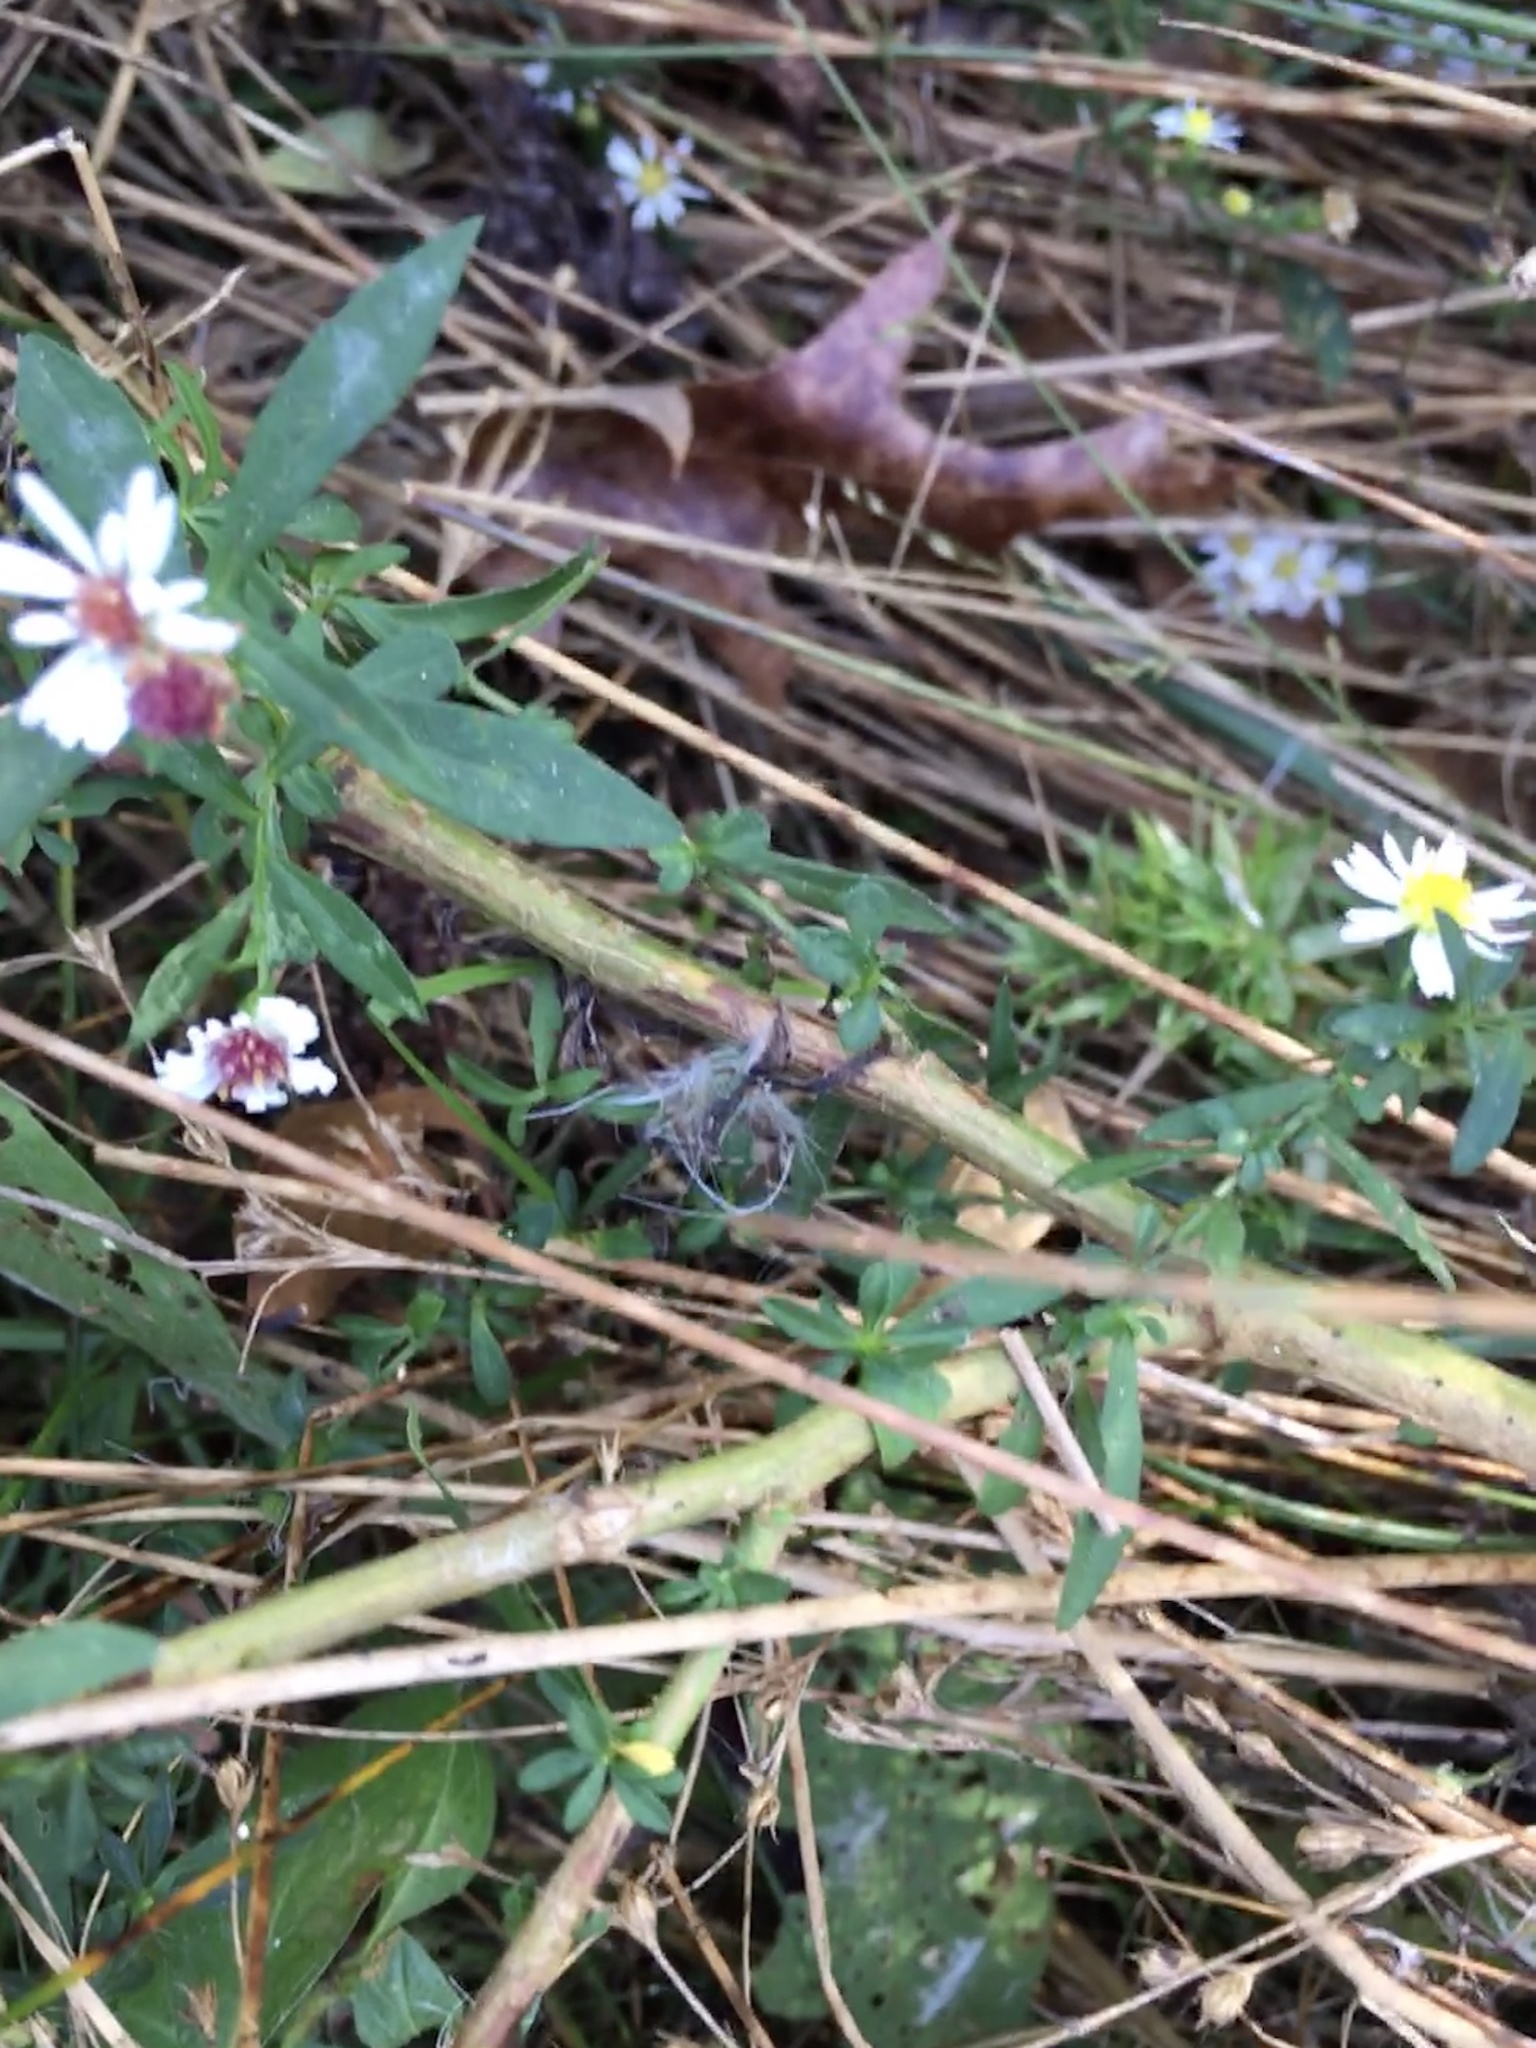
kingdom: Plantae
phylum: Tracheophyta
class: Magnoliopsida
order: Asterales
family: Asteraceae
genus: Symphyotrichum
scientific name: Symphyotrichum racemosum
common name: Small white aster
